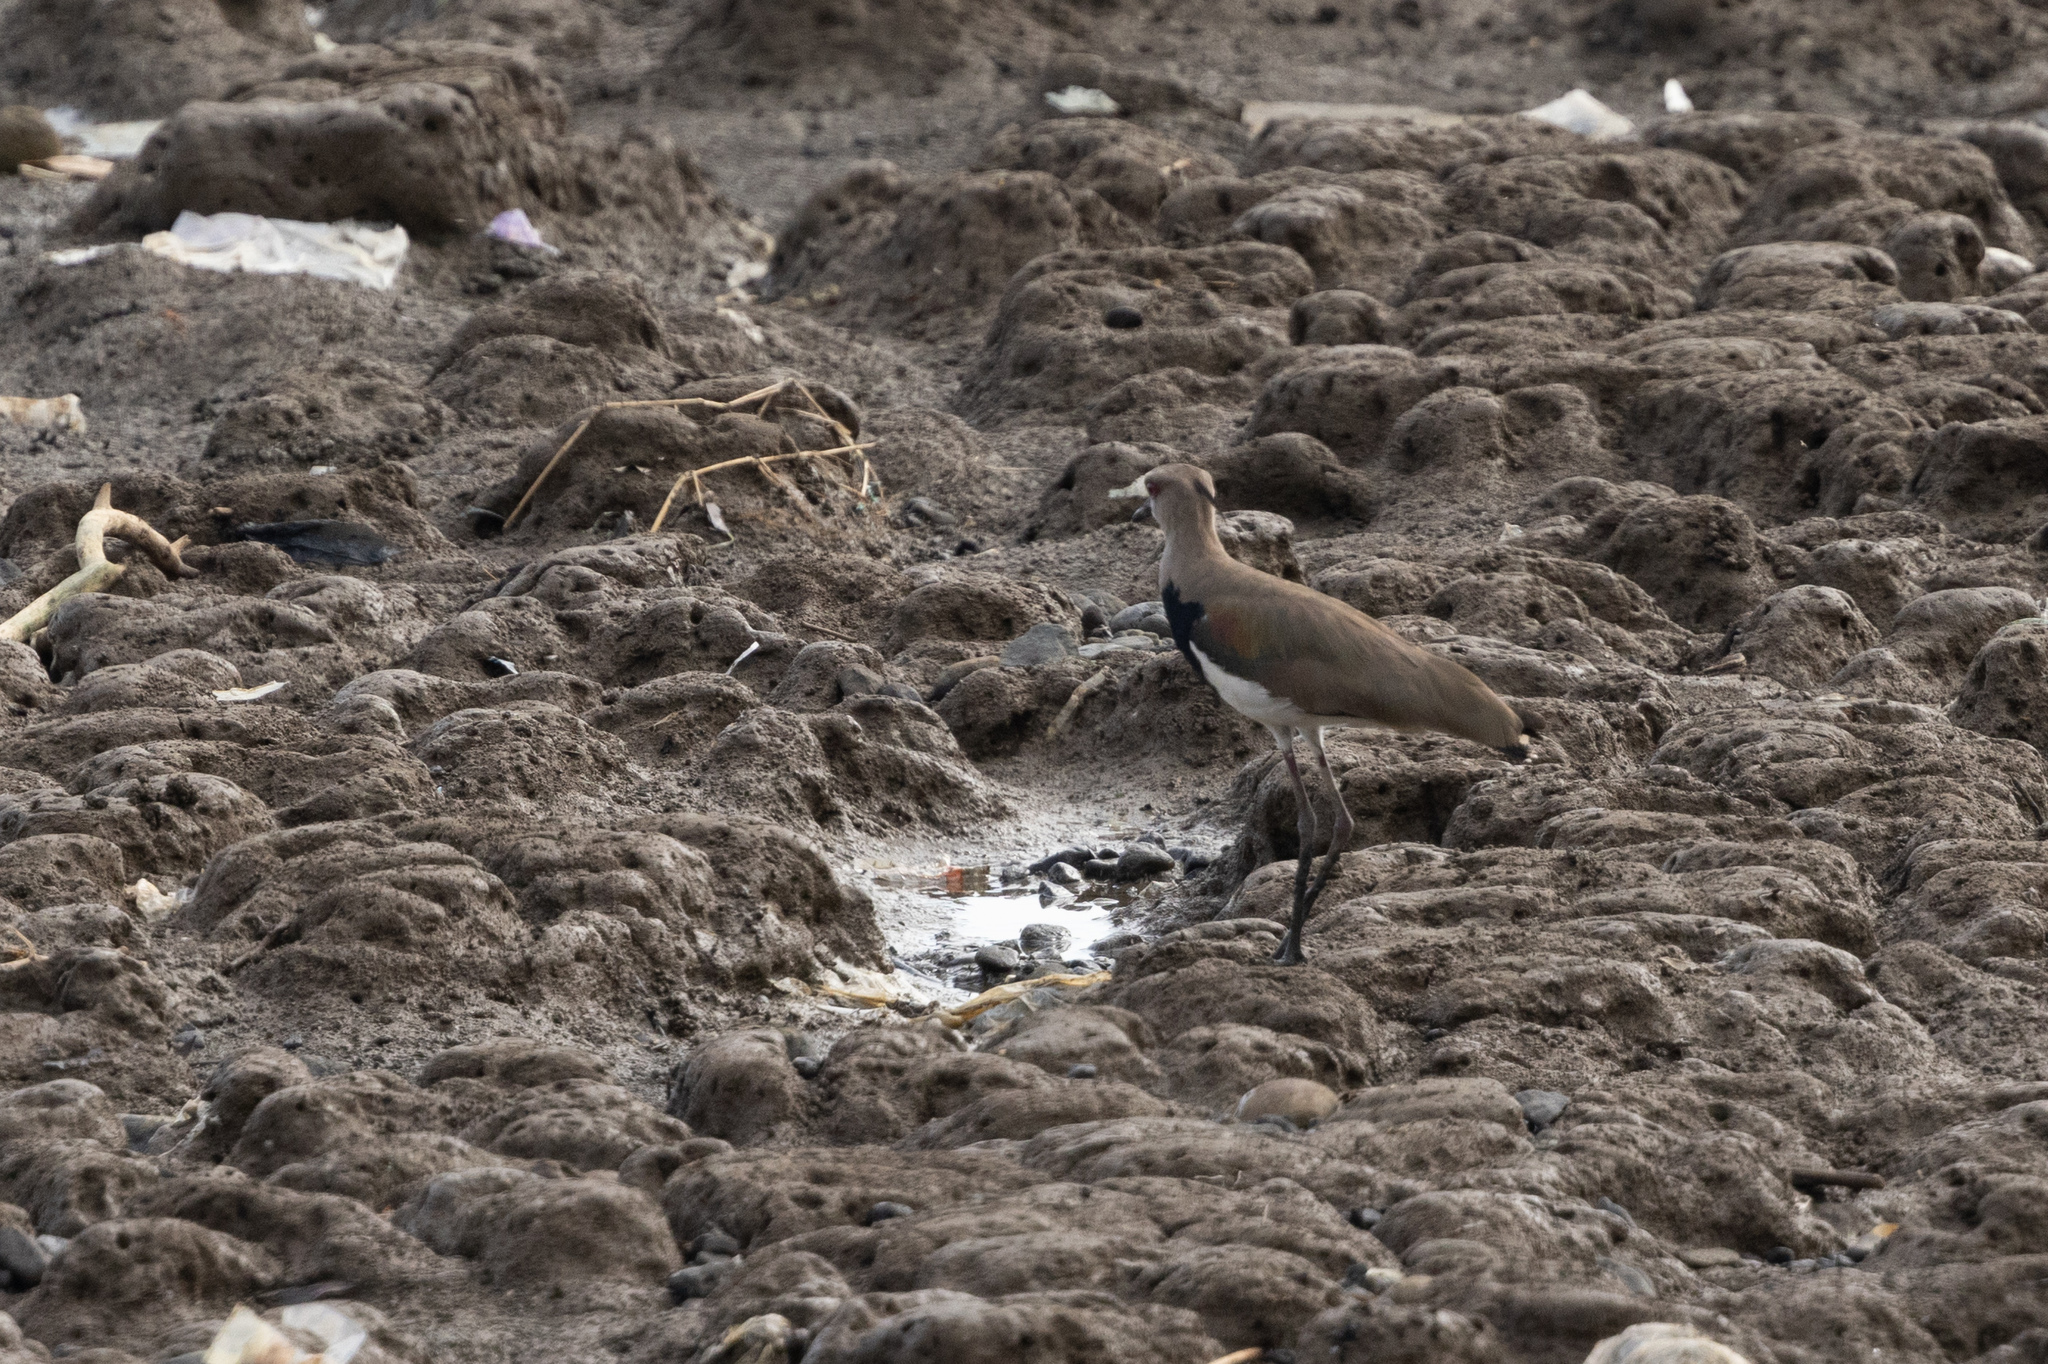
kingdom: Animalia
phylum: Chordata
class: Aves
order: Charadriiformes
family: Charadriidae
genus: Vanellus
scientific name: Vanellus chilensis
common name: Southern lapwing
